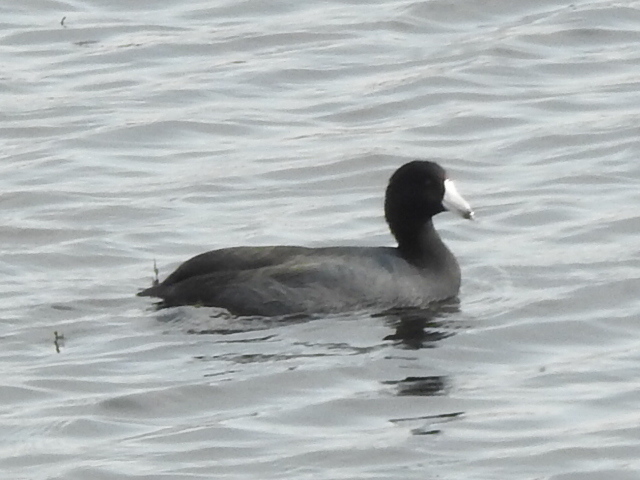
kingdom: Animalia
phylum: Chordata
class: Aves
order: Gruiformes
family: Rallidae
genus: Fulica
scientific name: Fulica americana
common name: American coot
